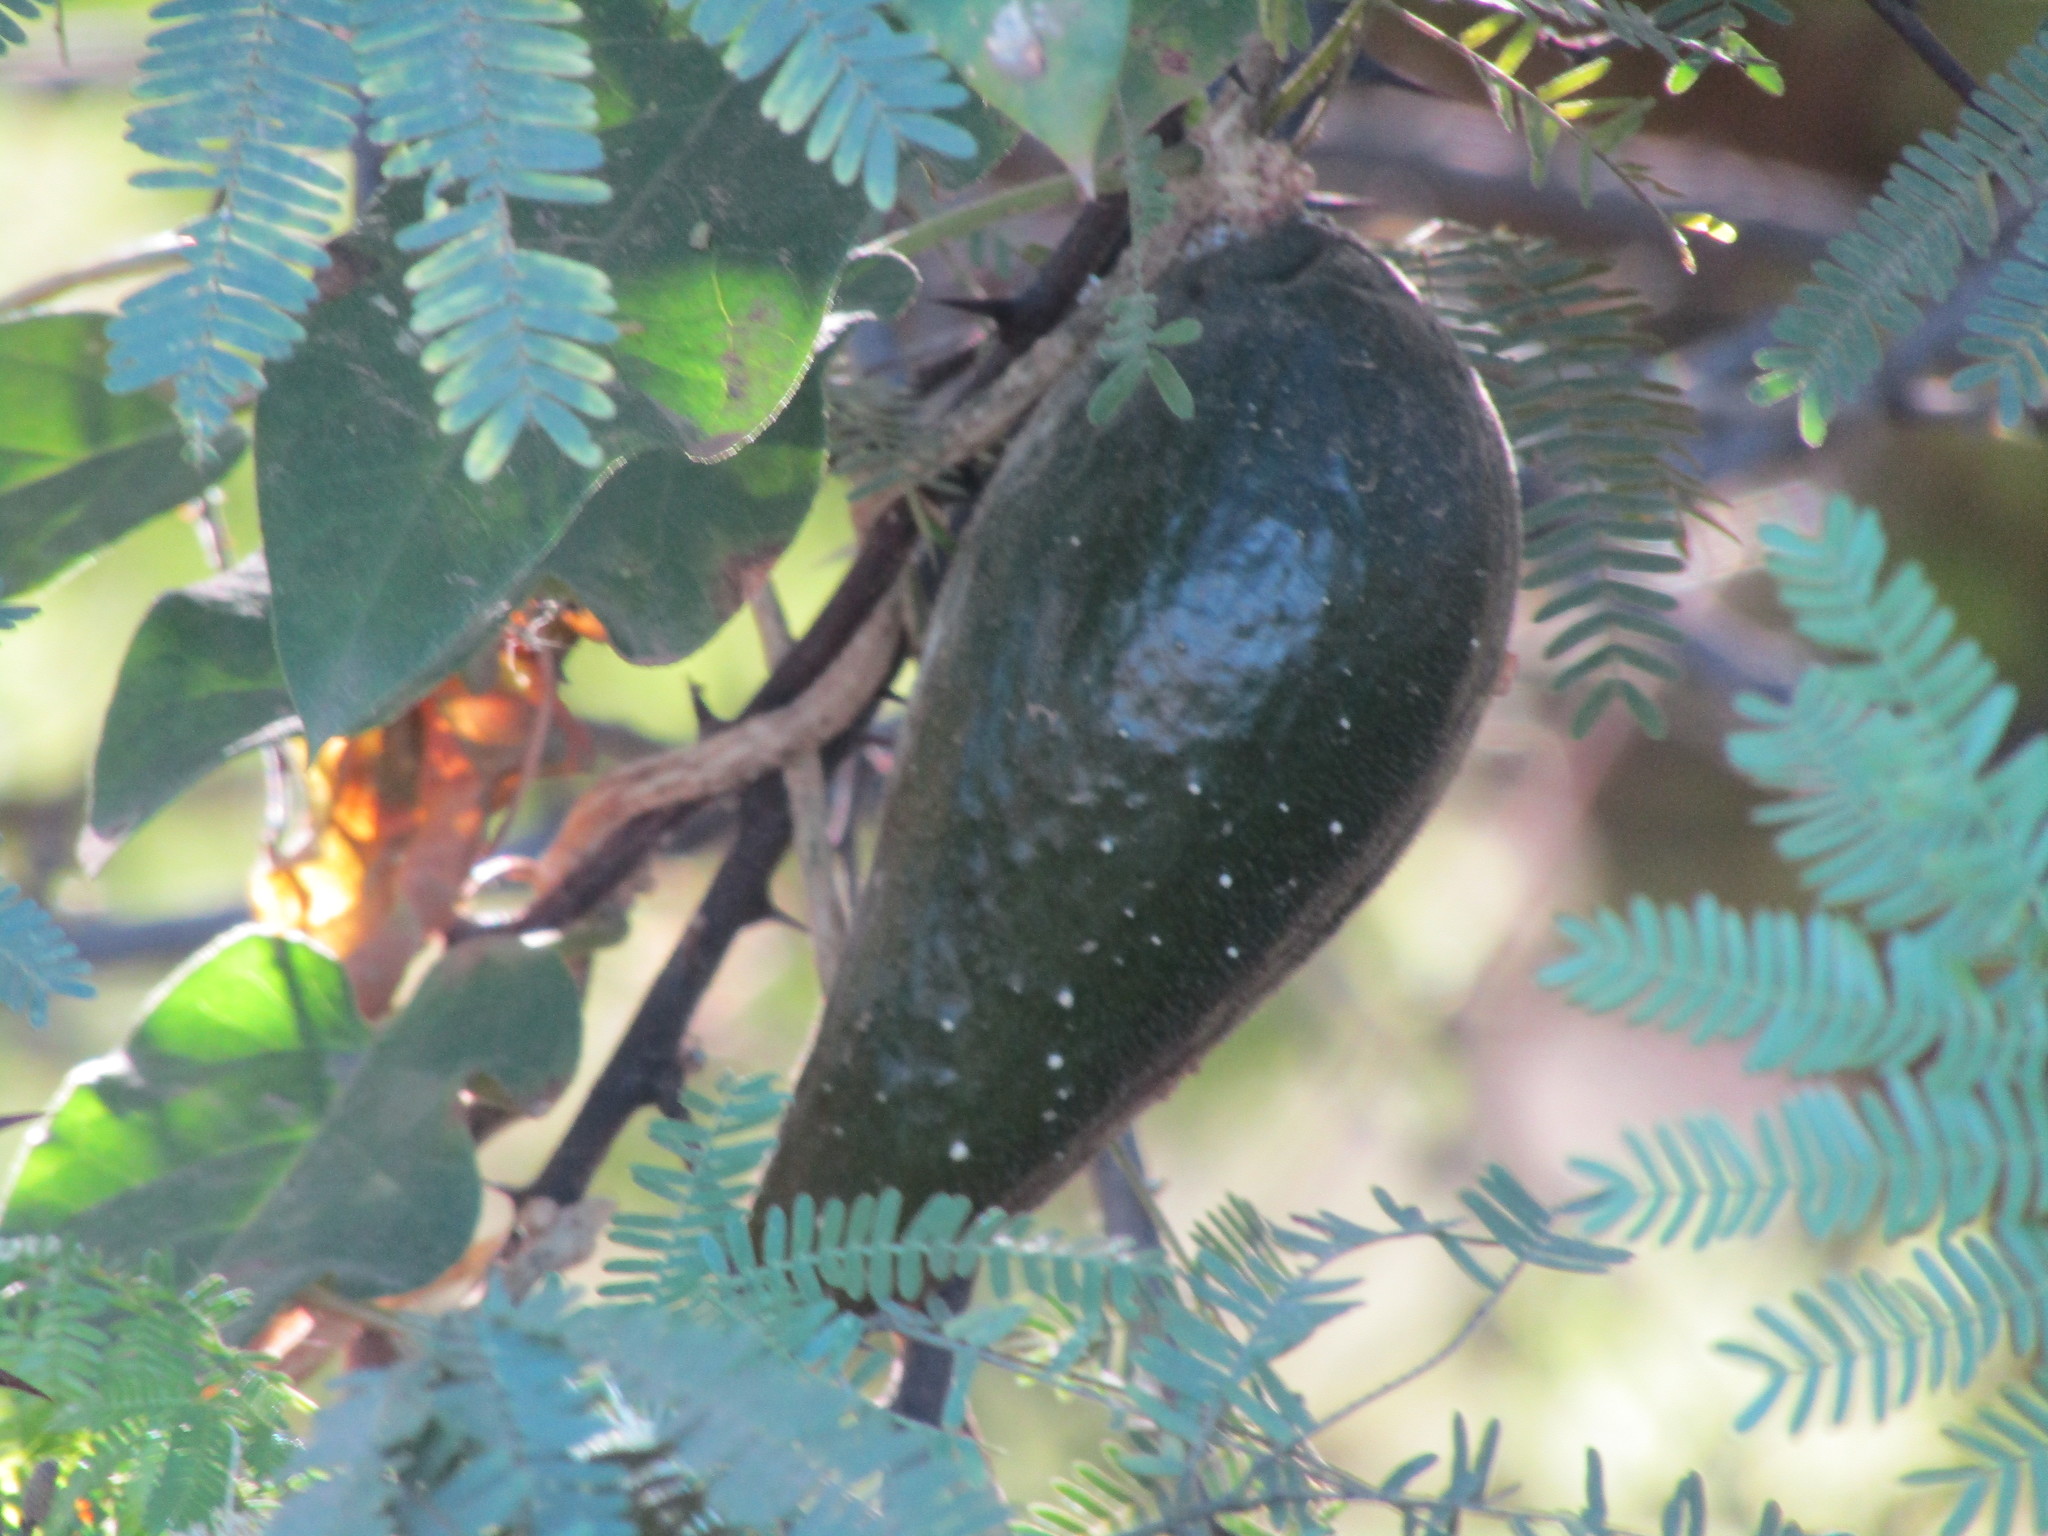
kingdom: Plantae
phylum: Tracheophyta
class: Magnoliopsida
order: Gentianales
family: Apocynaceae
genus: Ibatia
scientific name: Ibatia harleyi
